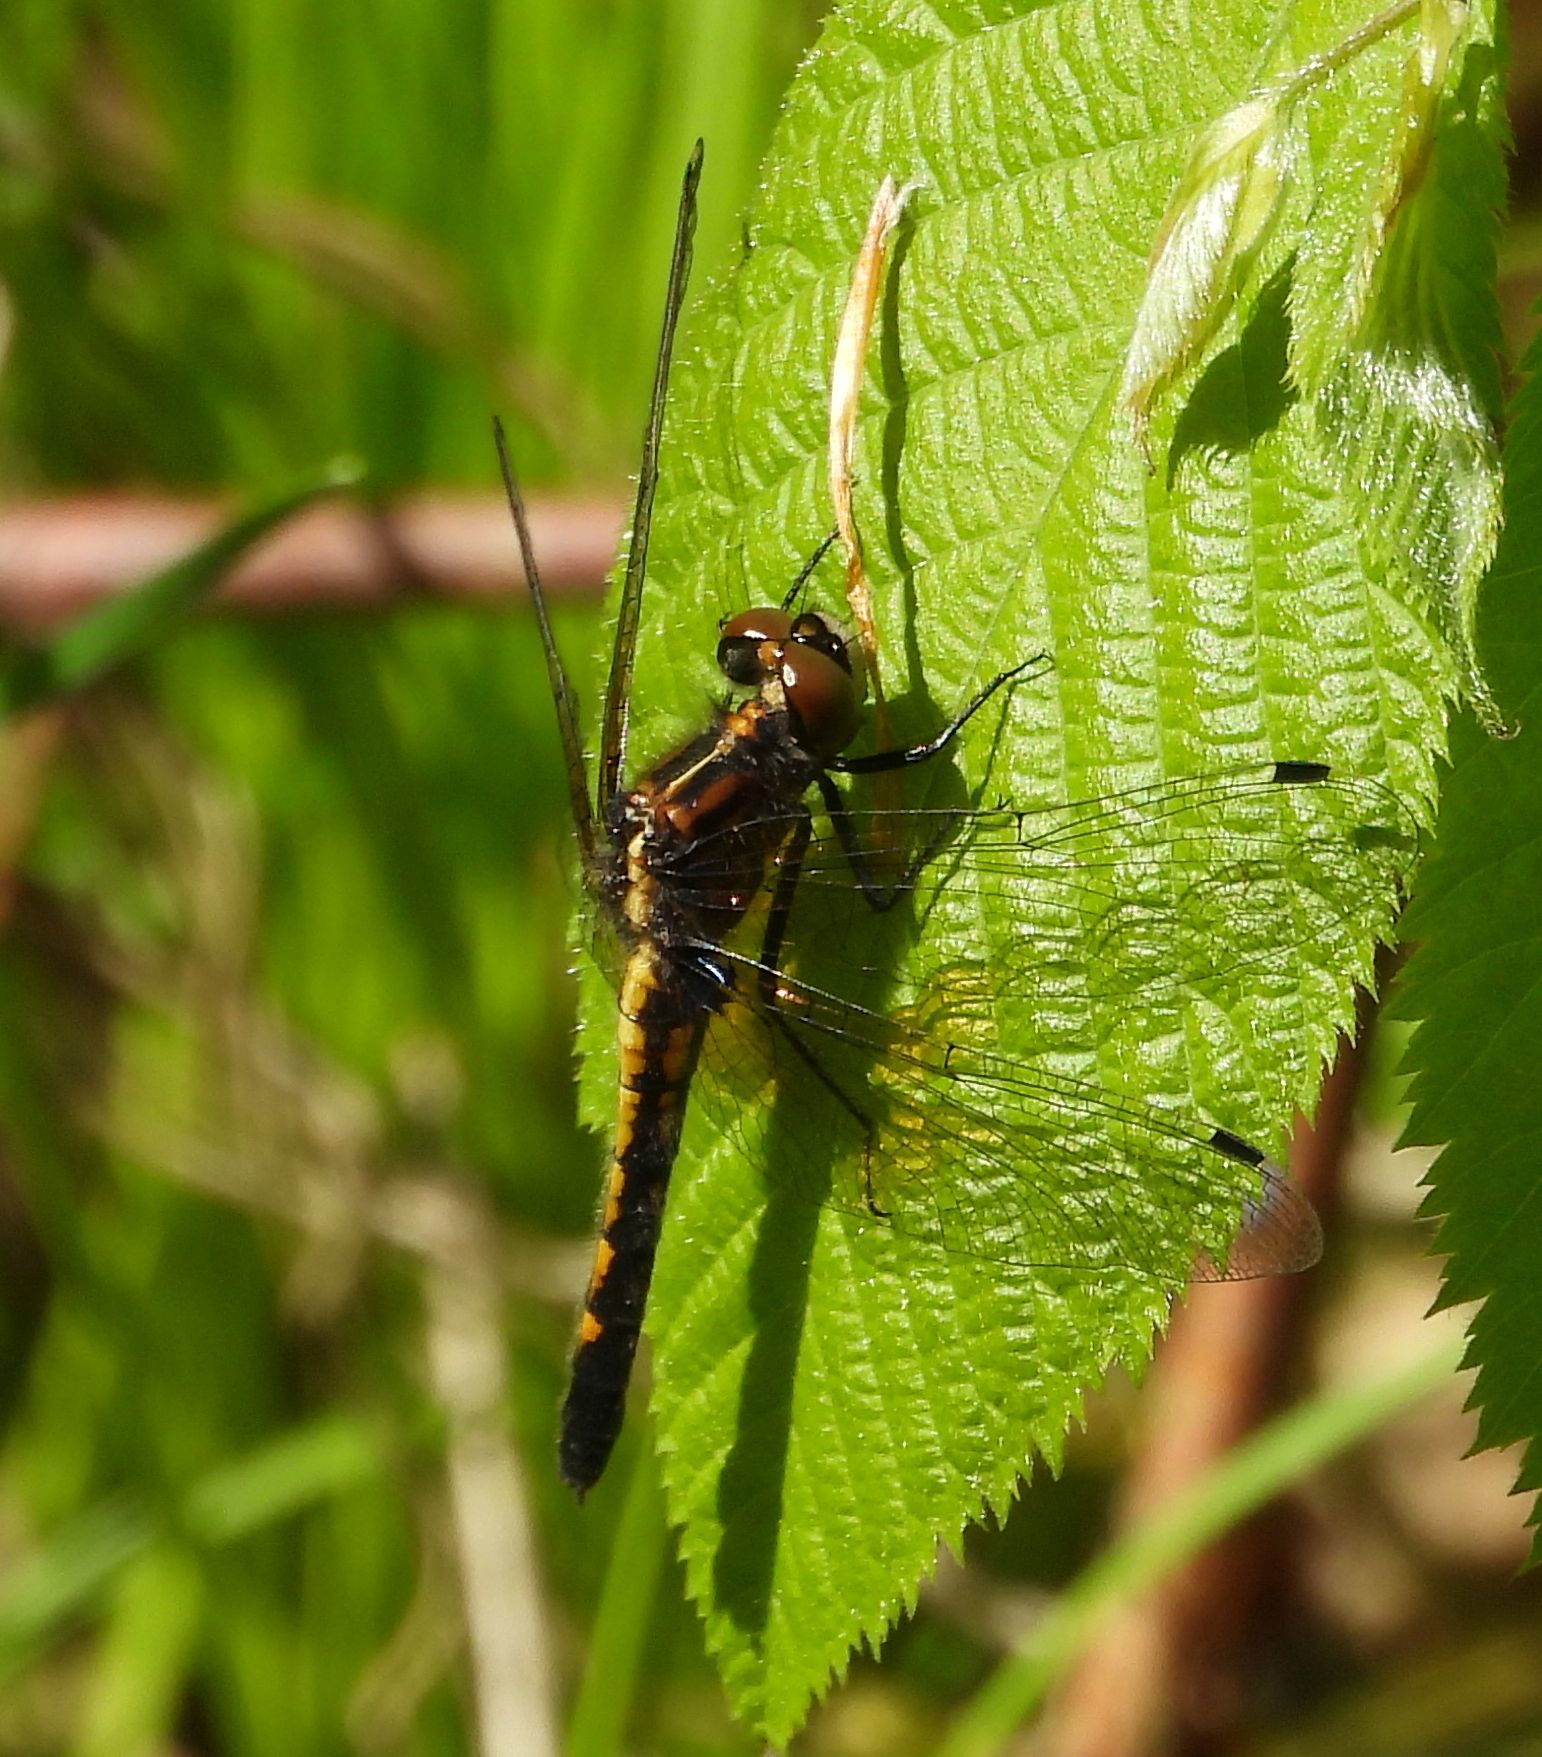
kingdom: Animalia
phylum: Arthropoda
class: Insecta
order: Odonata
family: Libellulidae
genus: Leucorrhinia
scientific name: Leucorrhinia intacta
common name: Dot-tailed whiteface
